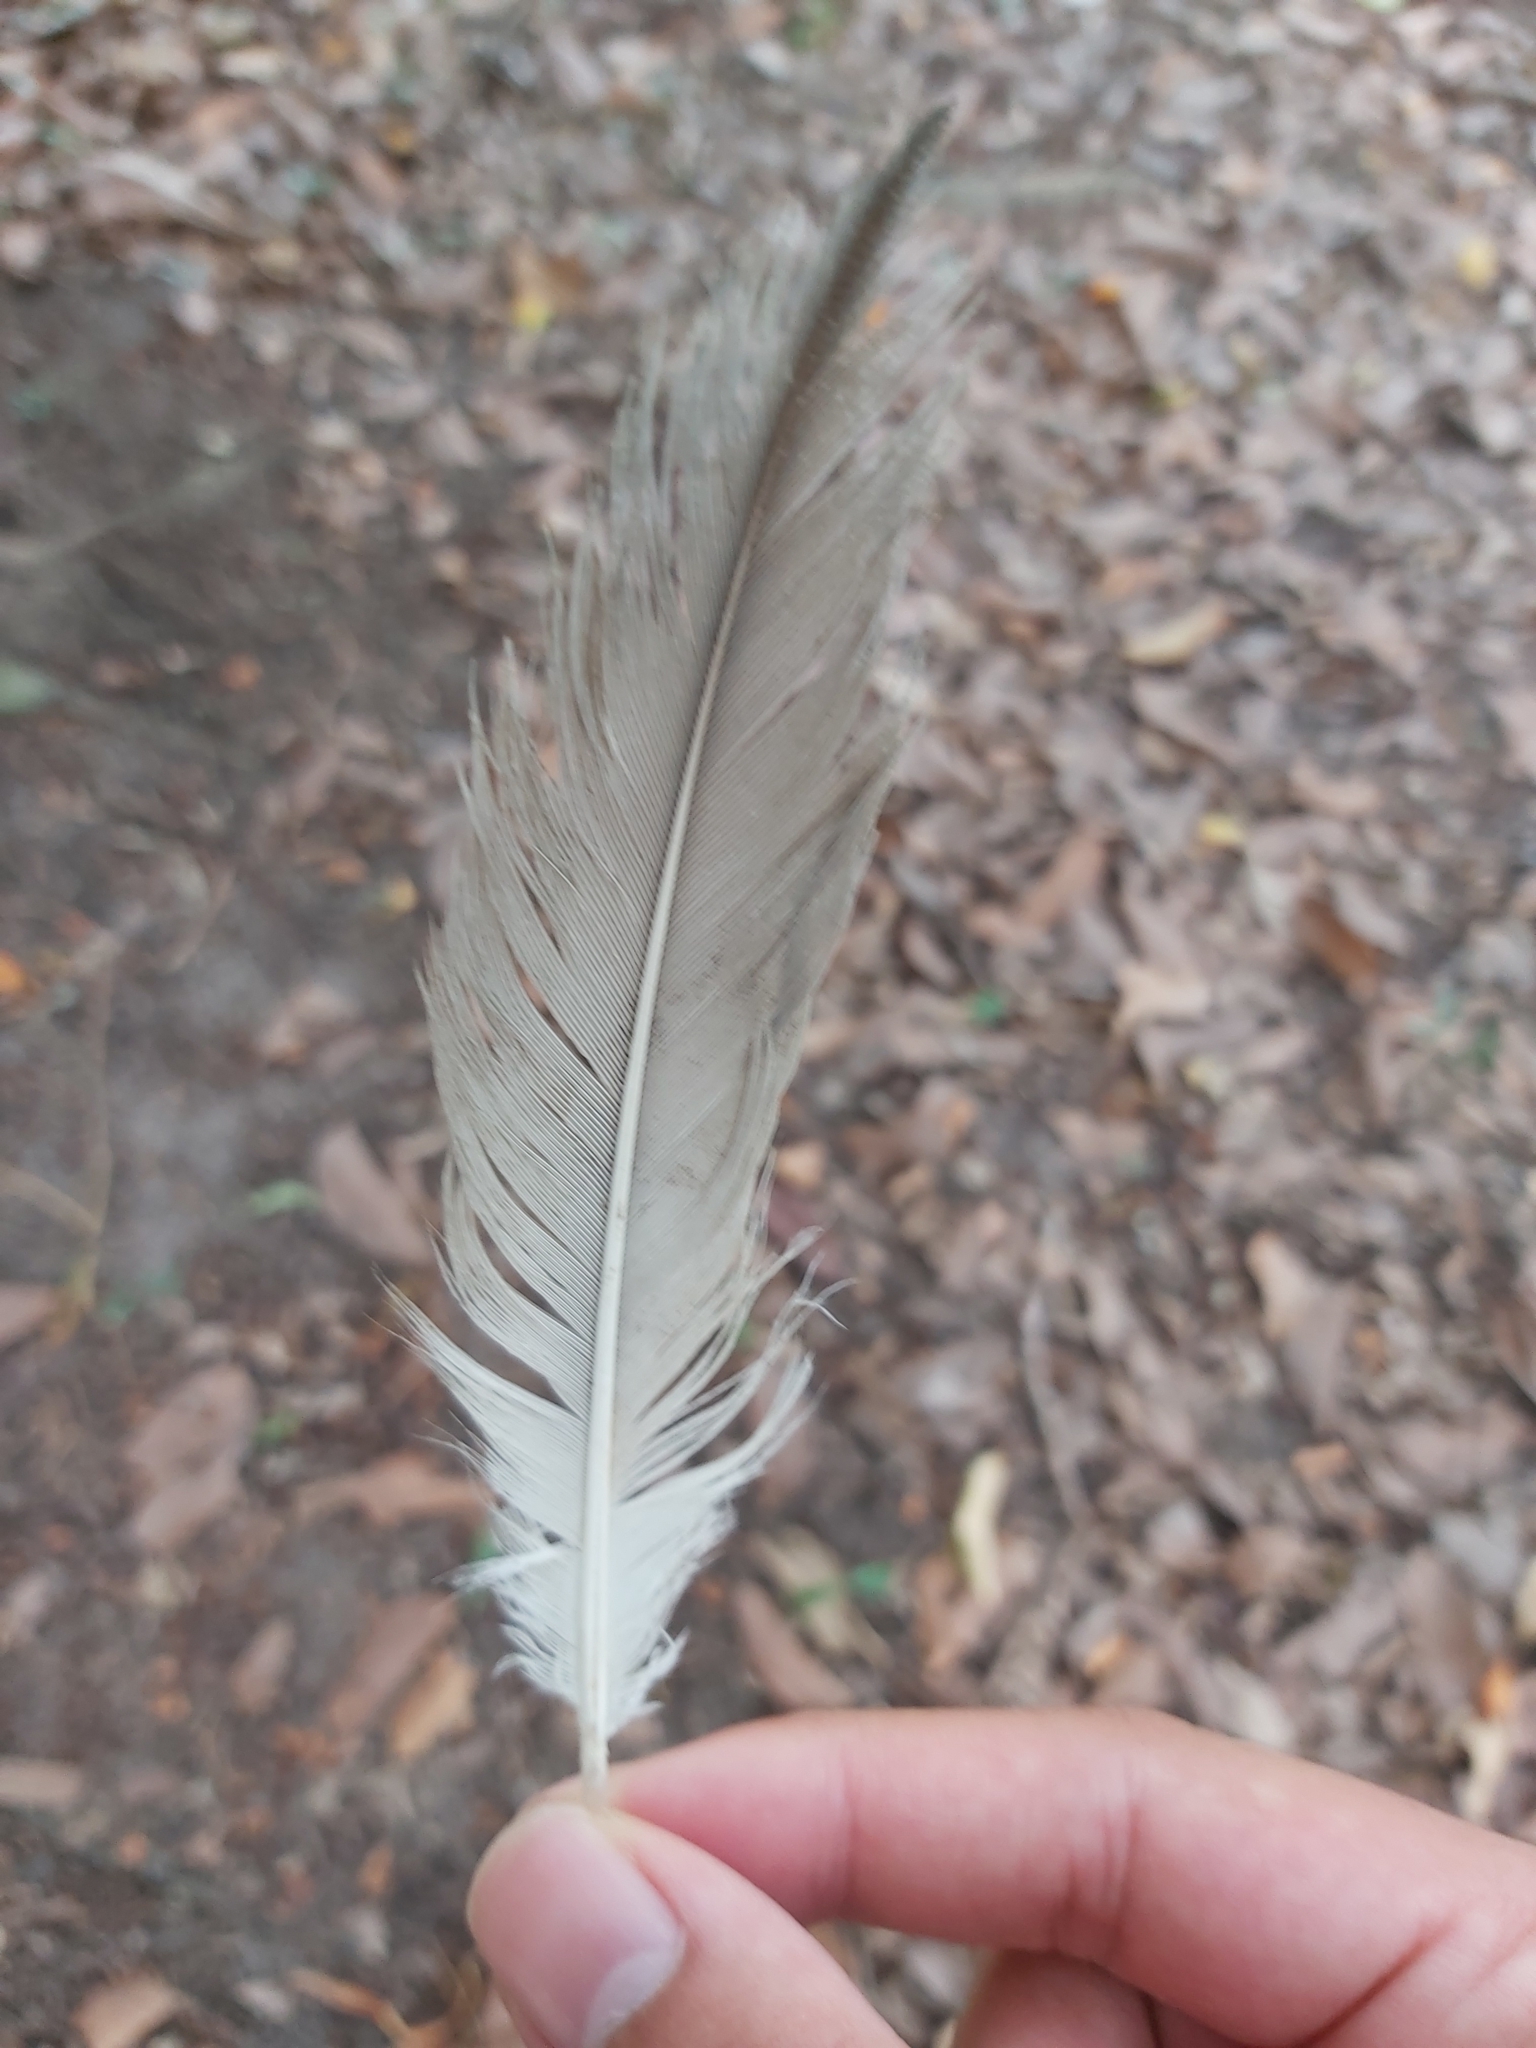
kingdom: Animalia
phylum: Chordata
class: Aves
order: Charadriiformes
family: Burhinidae
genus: Burhinus
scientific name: Burhinus grallarius
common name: Bush stone-curlew
